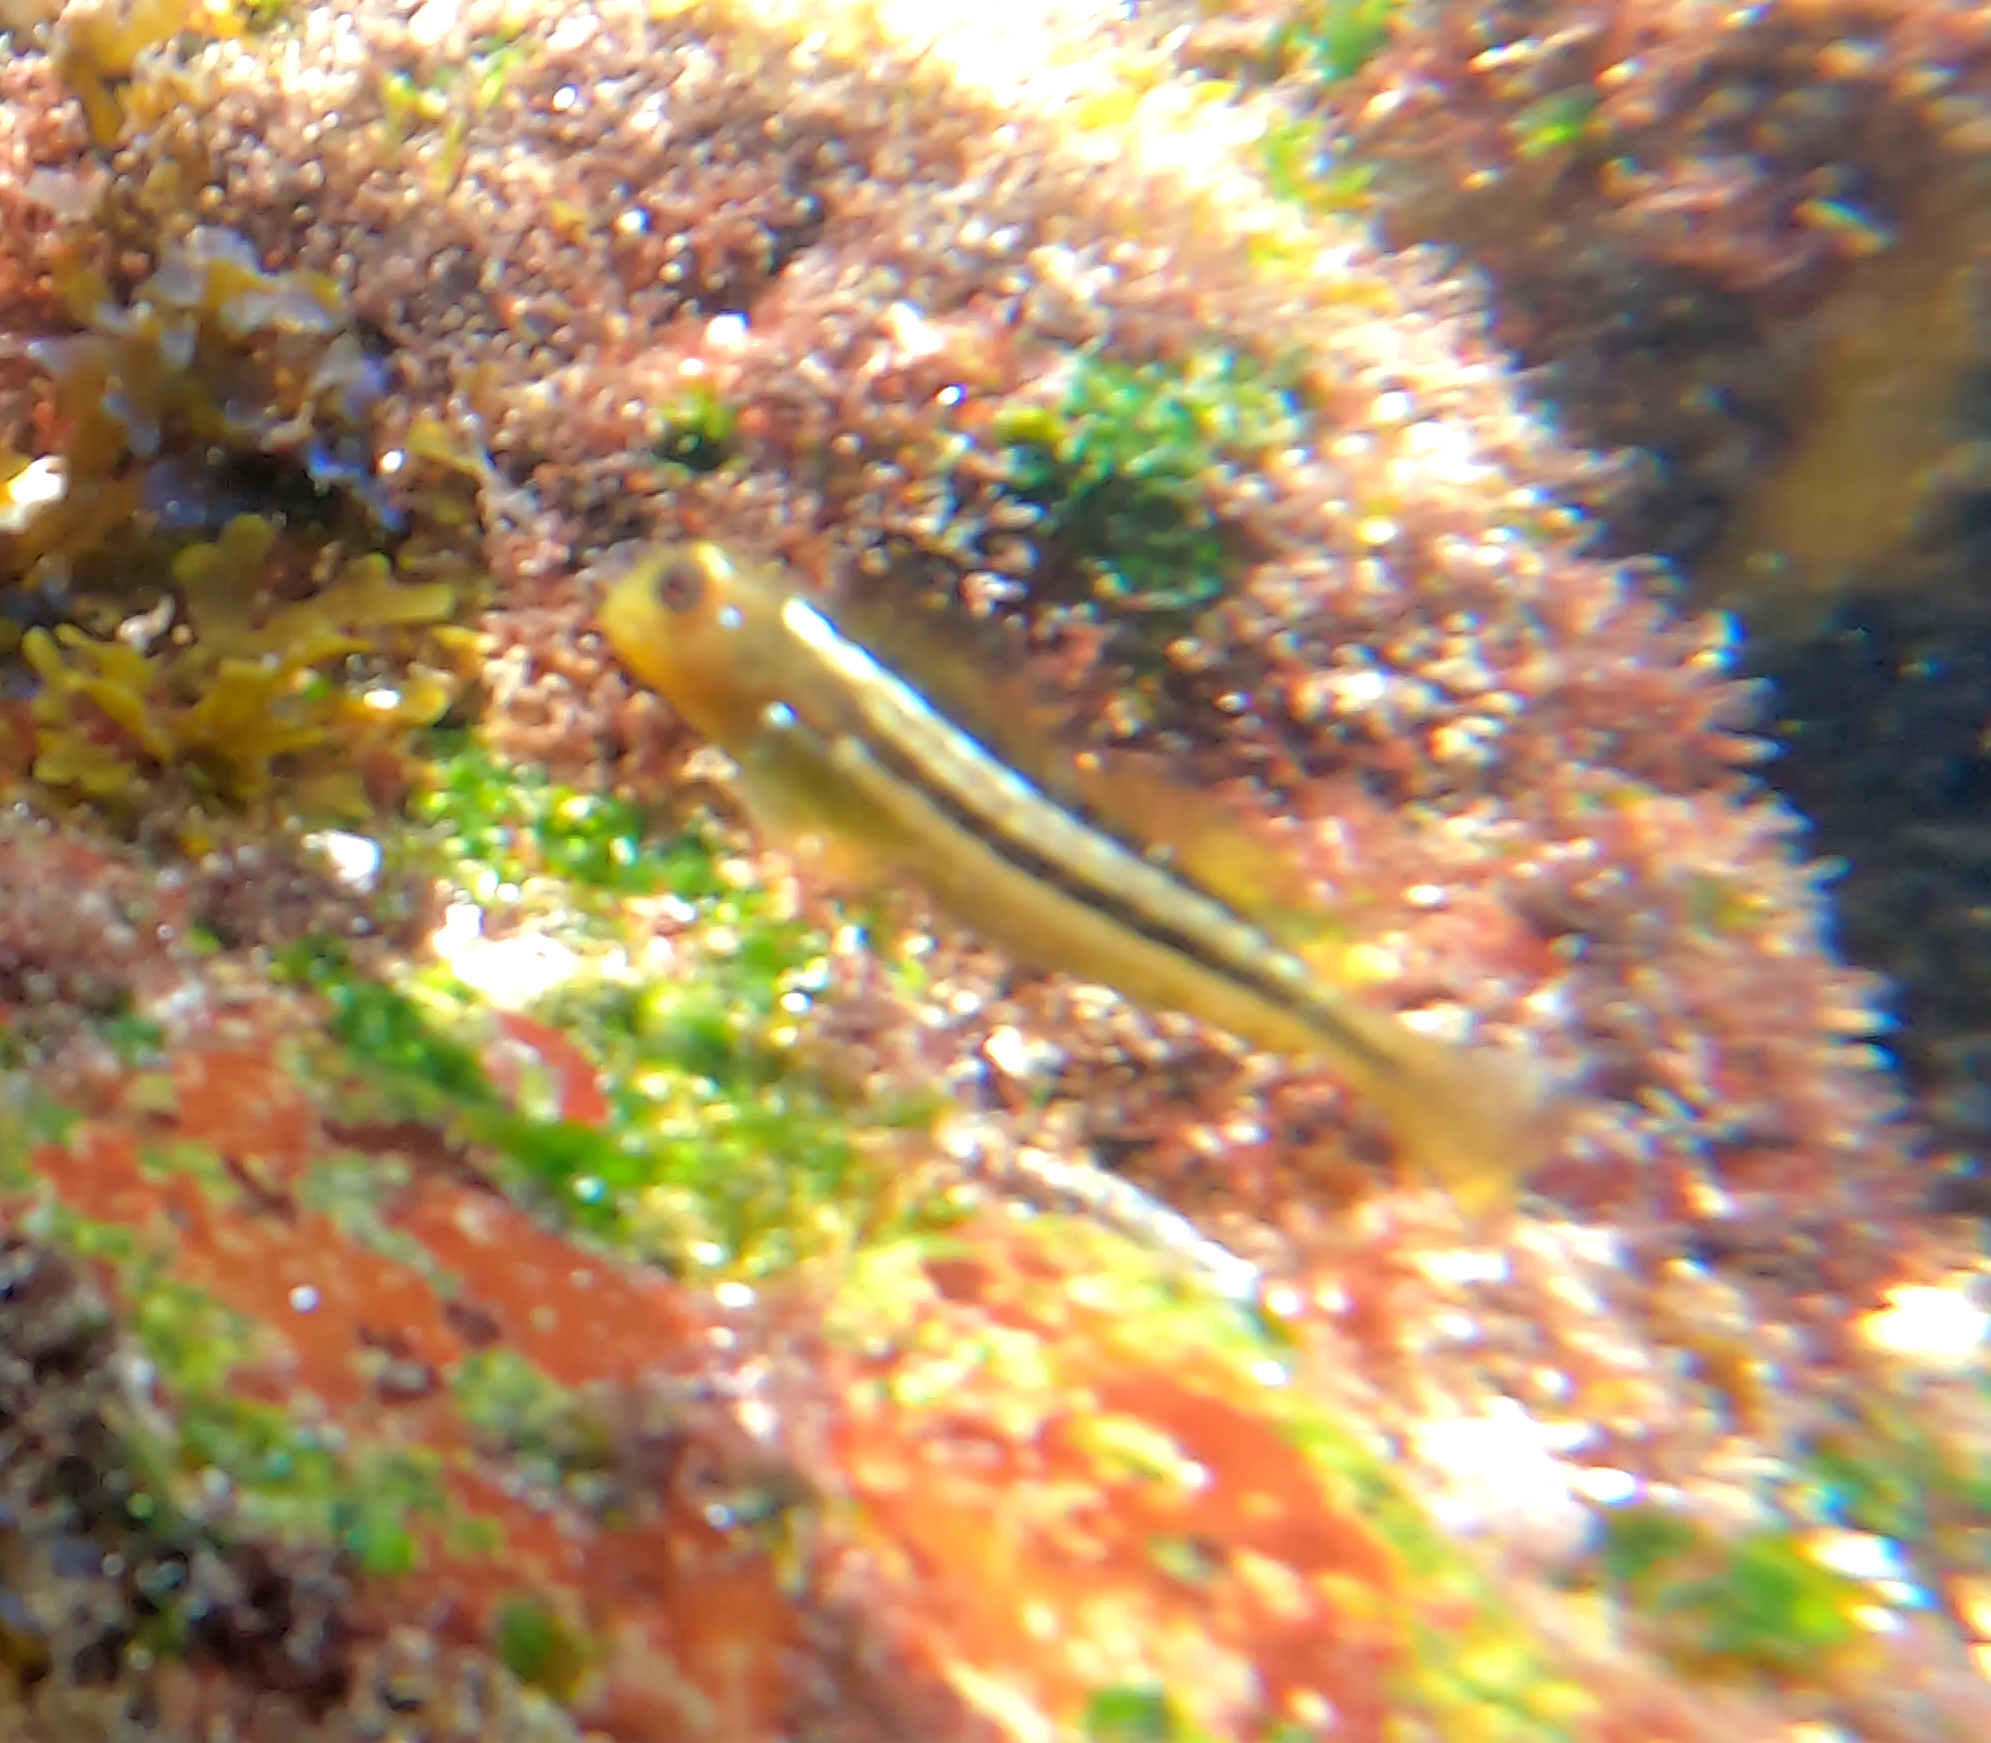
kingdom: Animalia
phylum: Chordata
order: Perciformes
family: Blenniidae
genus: Scartichthys
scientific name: Scartichthys viridis
